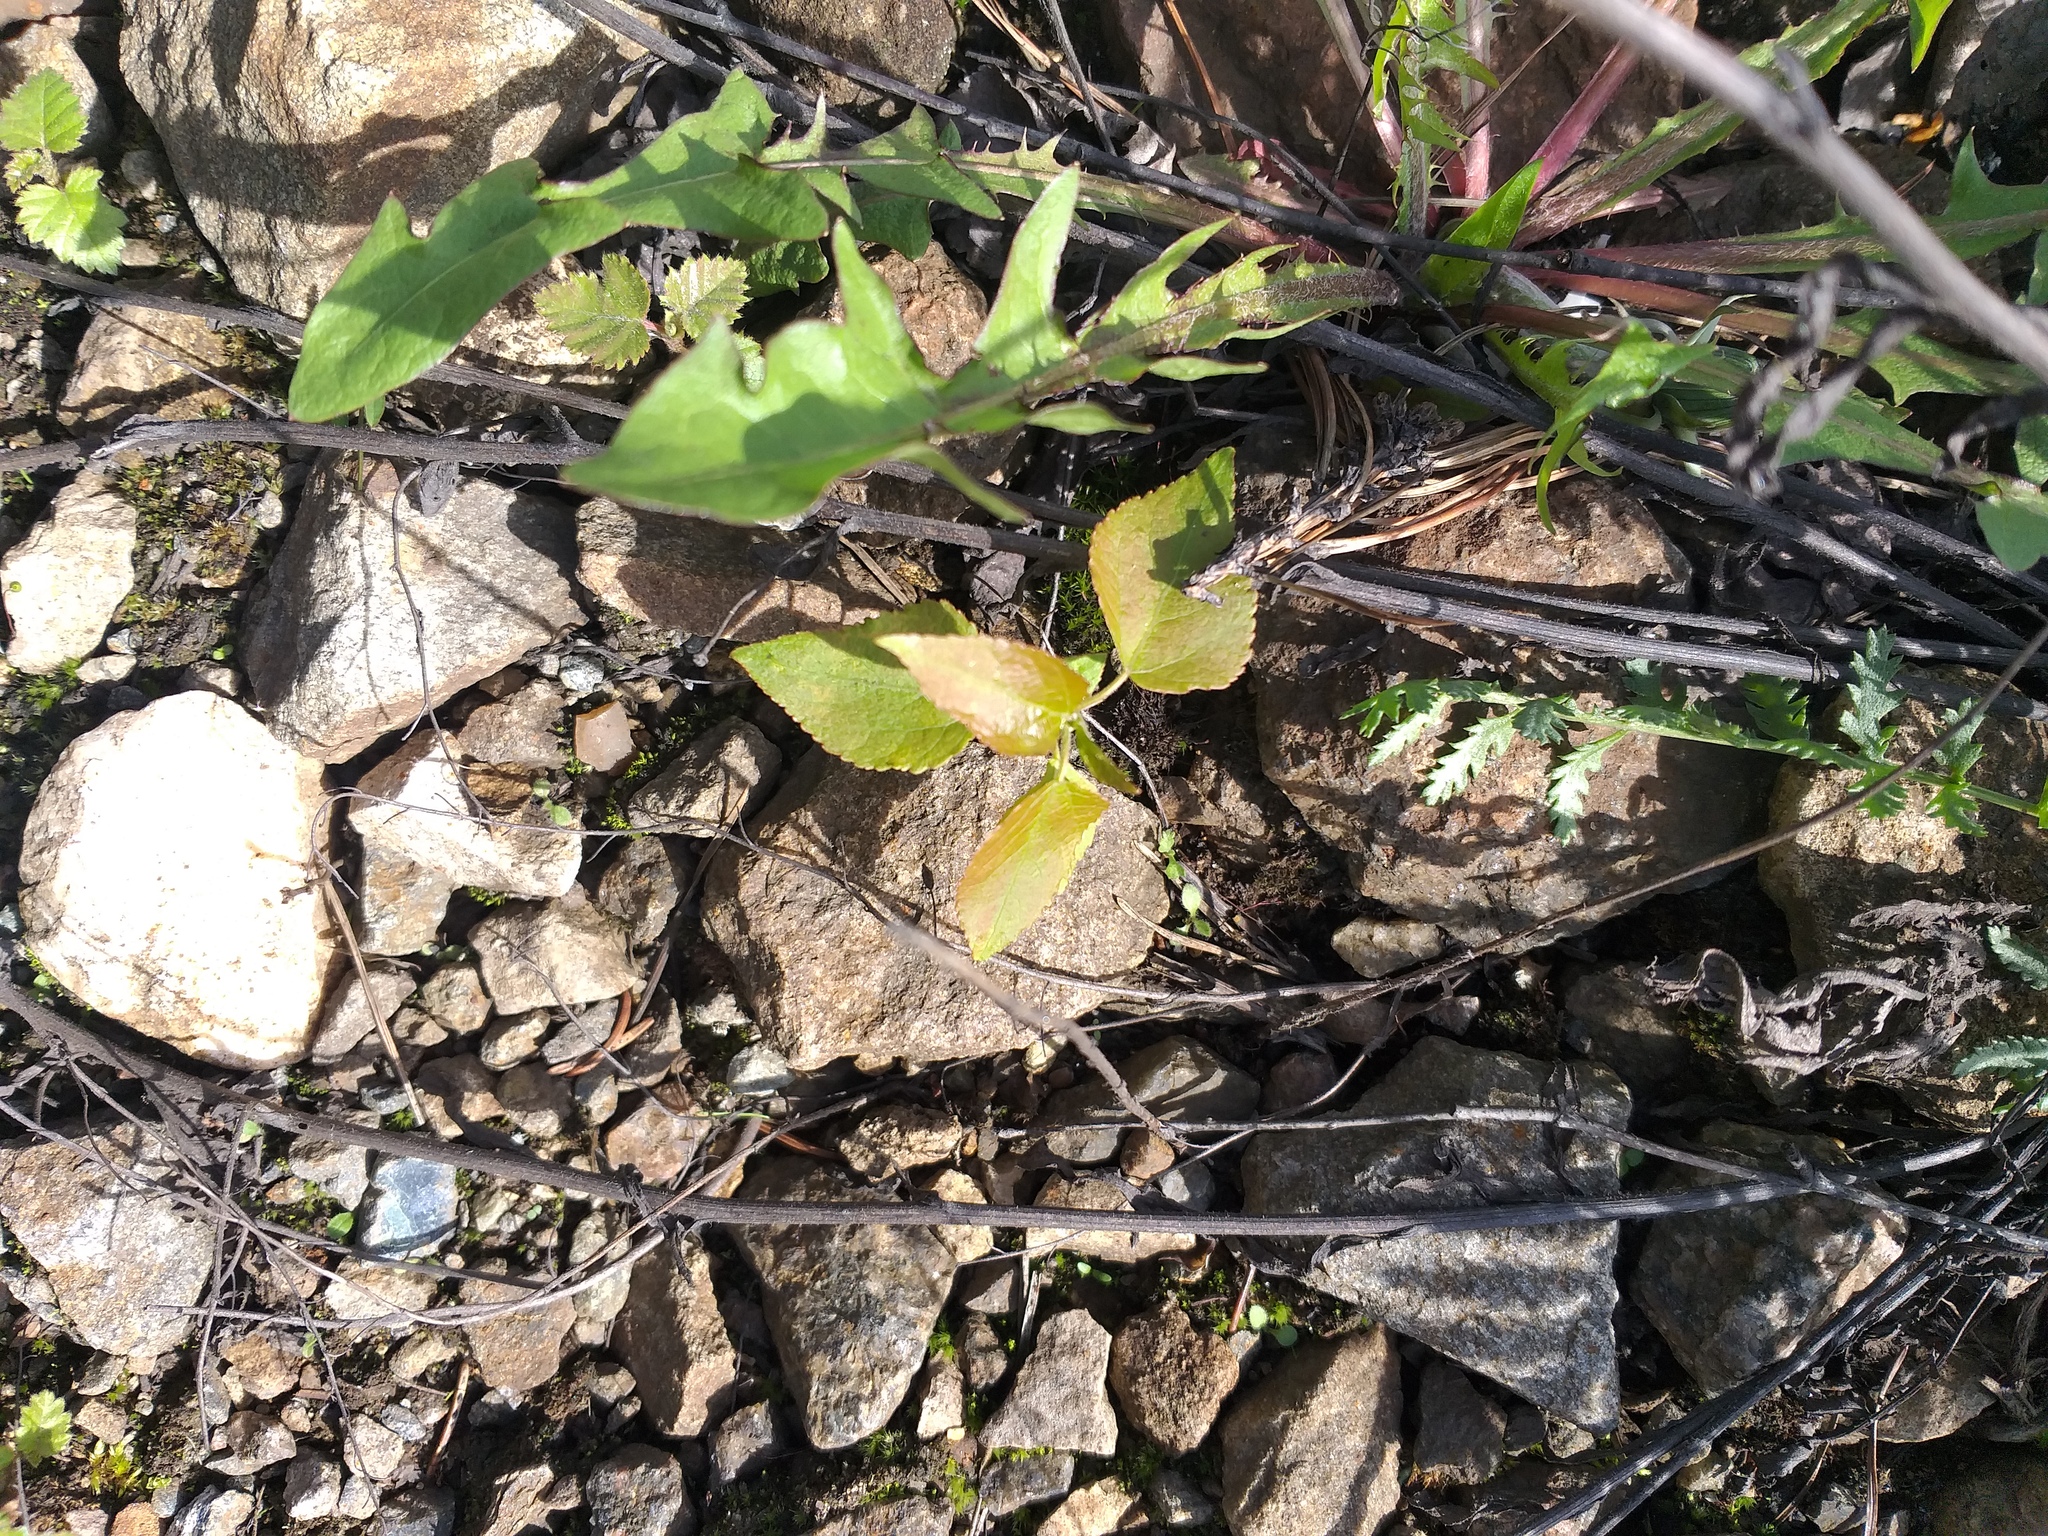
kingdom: Plantae
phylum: Tracheophyta
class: Magnoliopsida
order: Malpighiales
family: Salicaceae
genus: Populus
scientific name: Populus tremula
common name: European aspen
